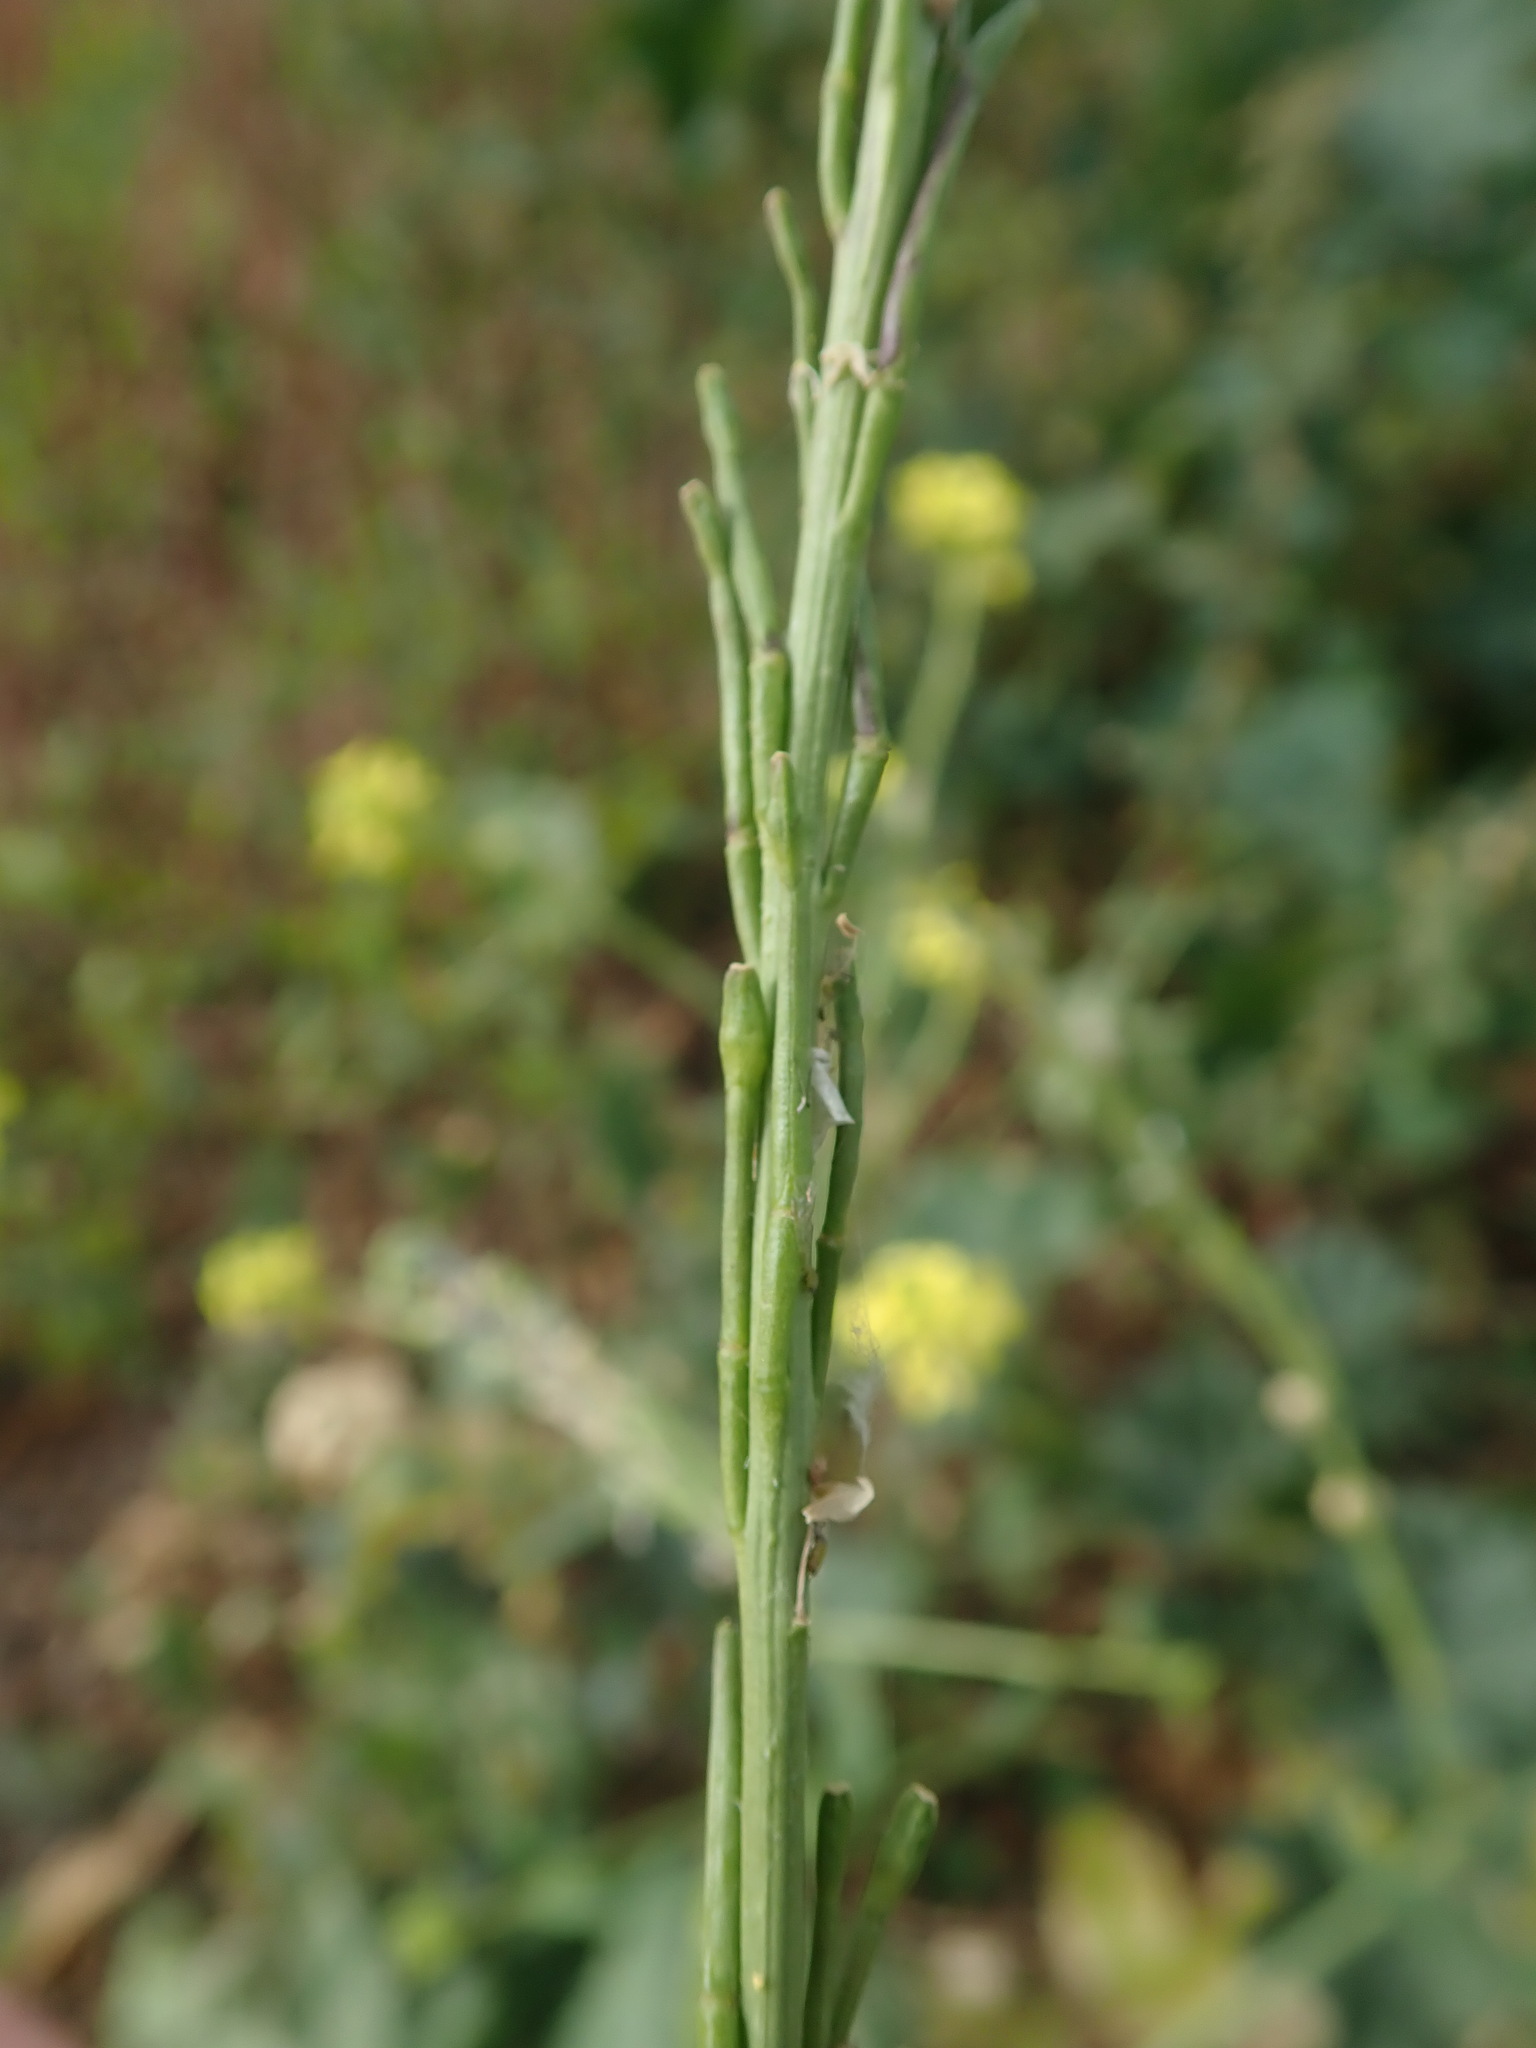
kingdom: Plantae
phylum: Tracheophyta
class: Magnoliopsida
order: Brassicales
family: Brassicaceae
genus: Hirschfeldia
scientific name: Hirschfeldia incana
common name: Hoary mustard
